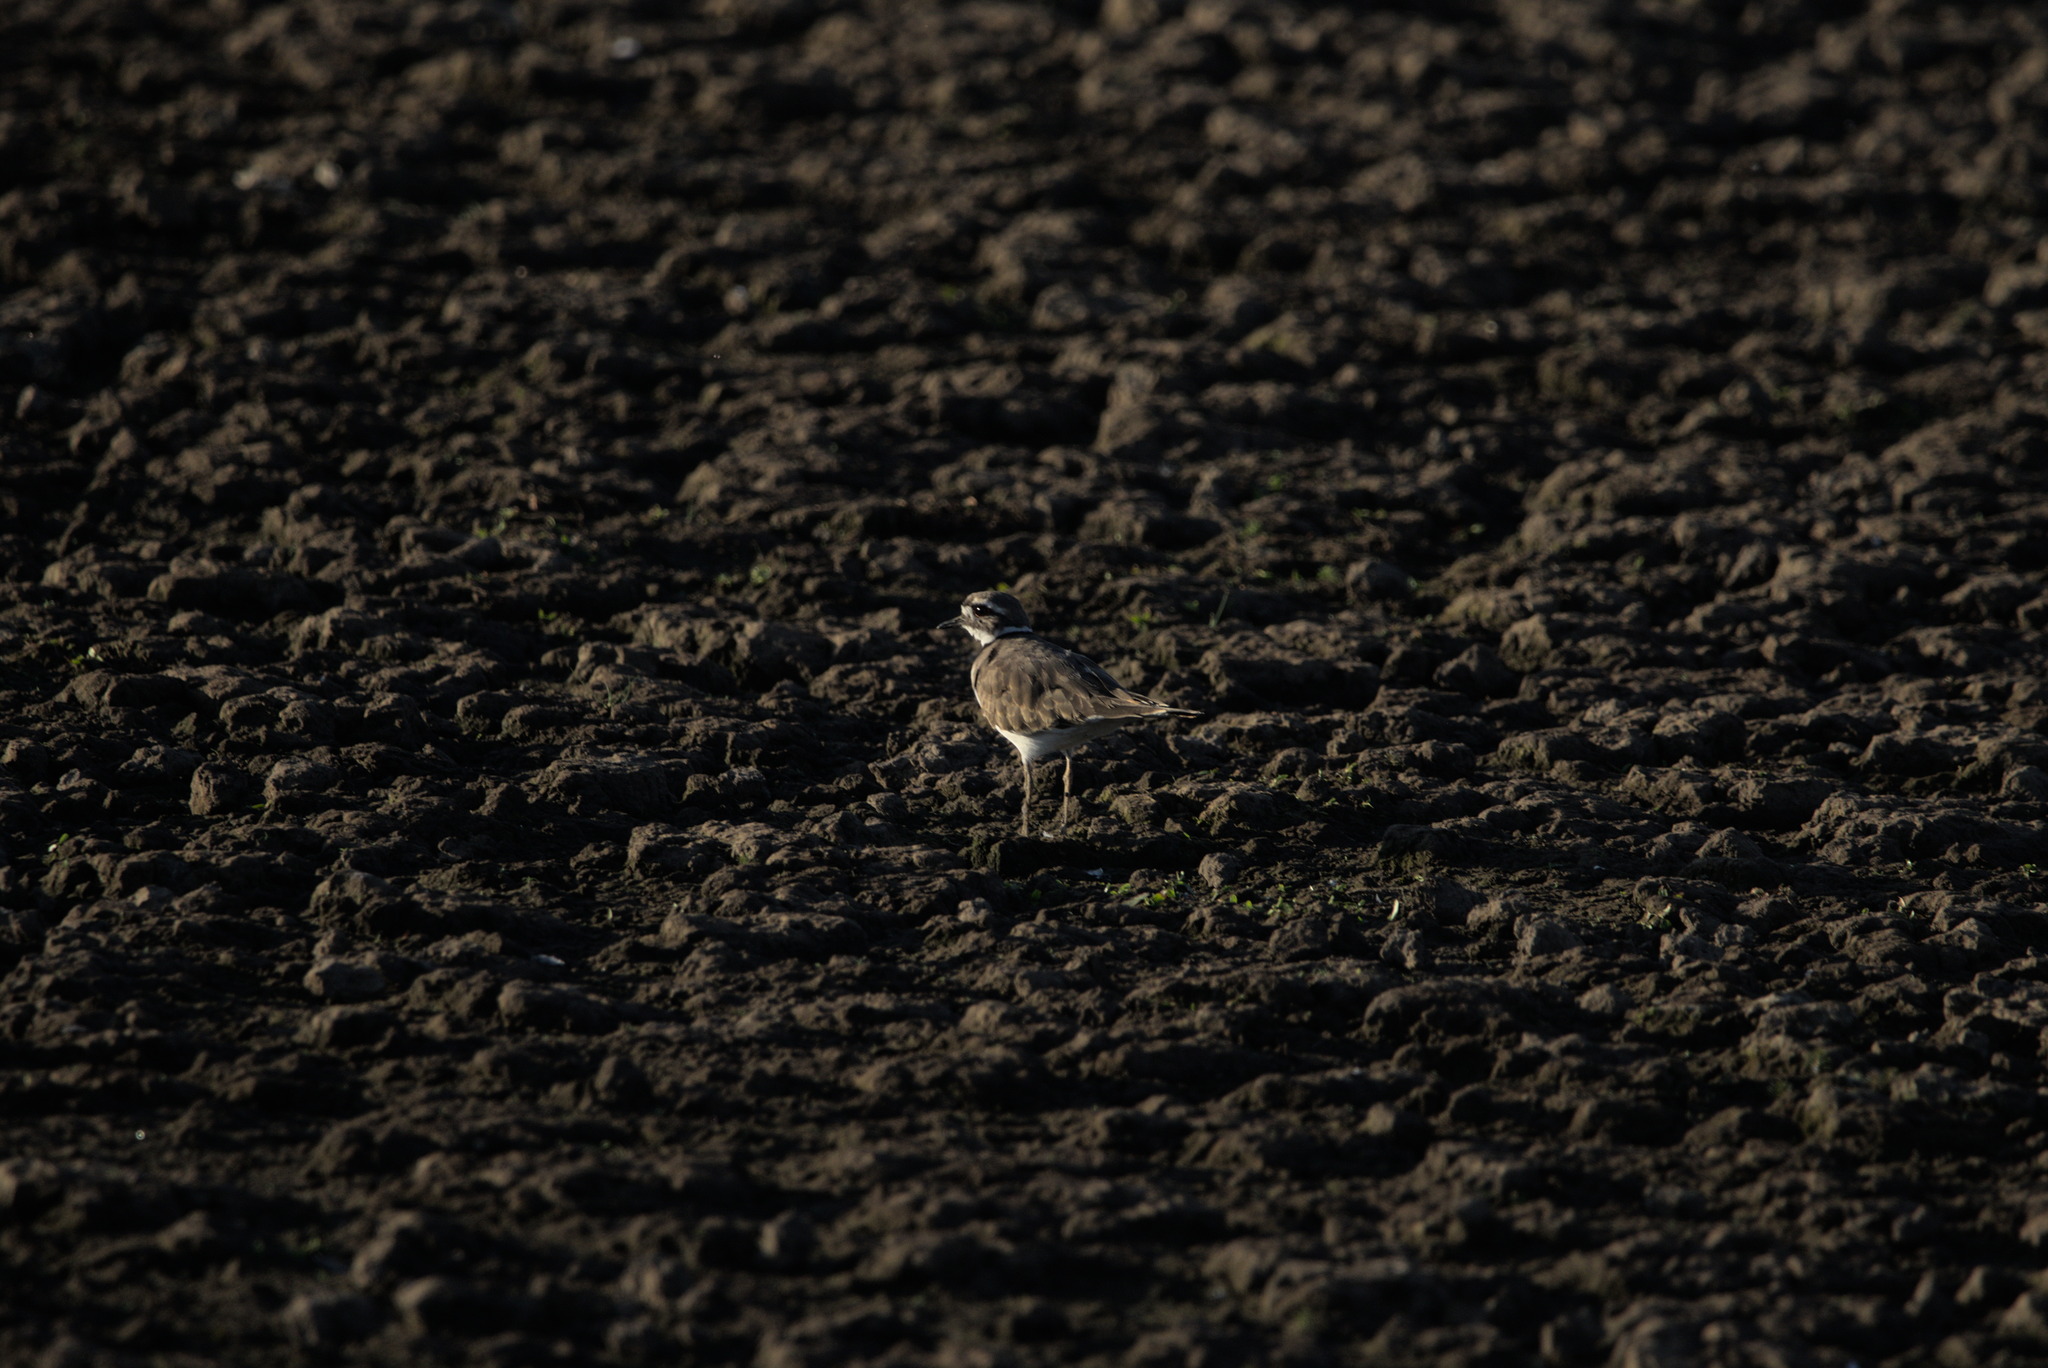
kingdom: Animalia
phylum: Chordata
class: Aves
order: Charadriiformes
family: Charadriidae
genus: Charadrius
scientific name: Charadrius vociferus
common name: Killdeer
